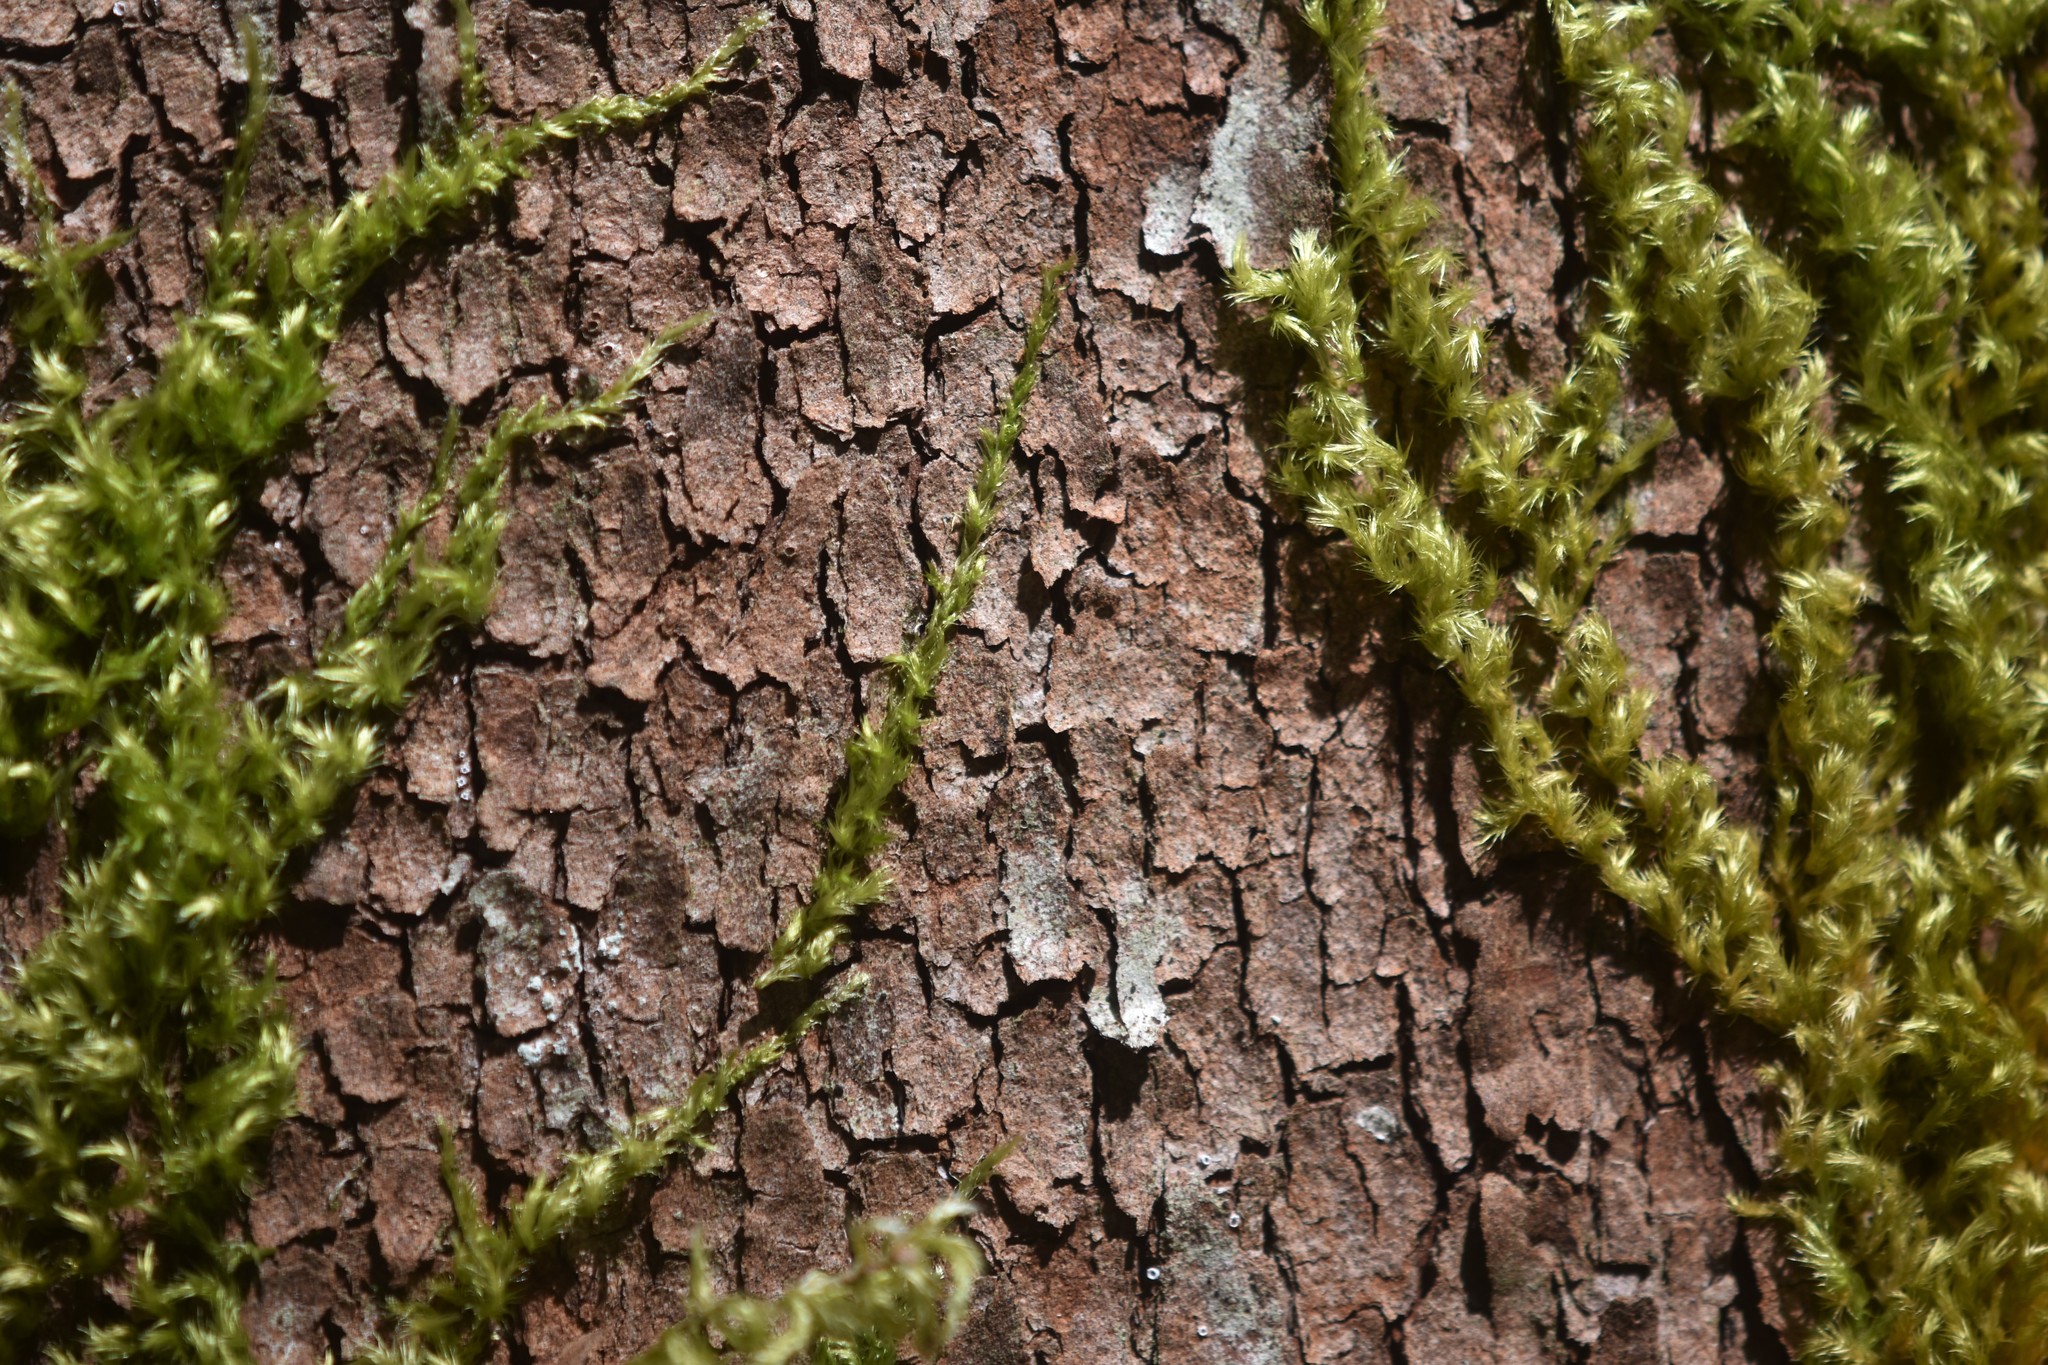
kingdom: Plantae
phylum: Bryophyta
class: Bryopsida
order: Hypnales
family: Brachytheciaceae
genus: Homalothecium
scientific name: Homalothecium nuttallii
